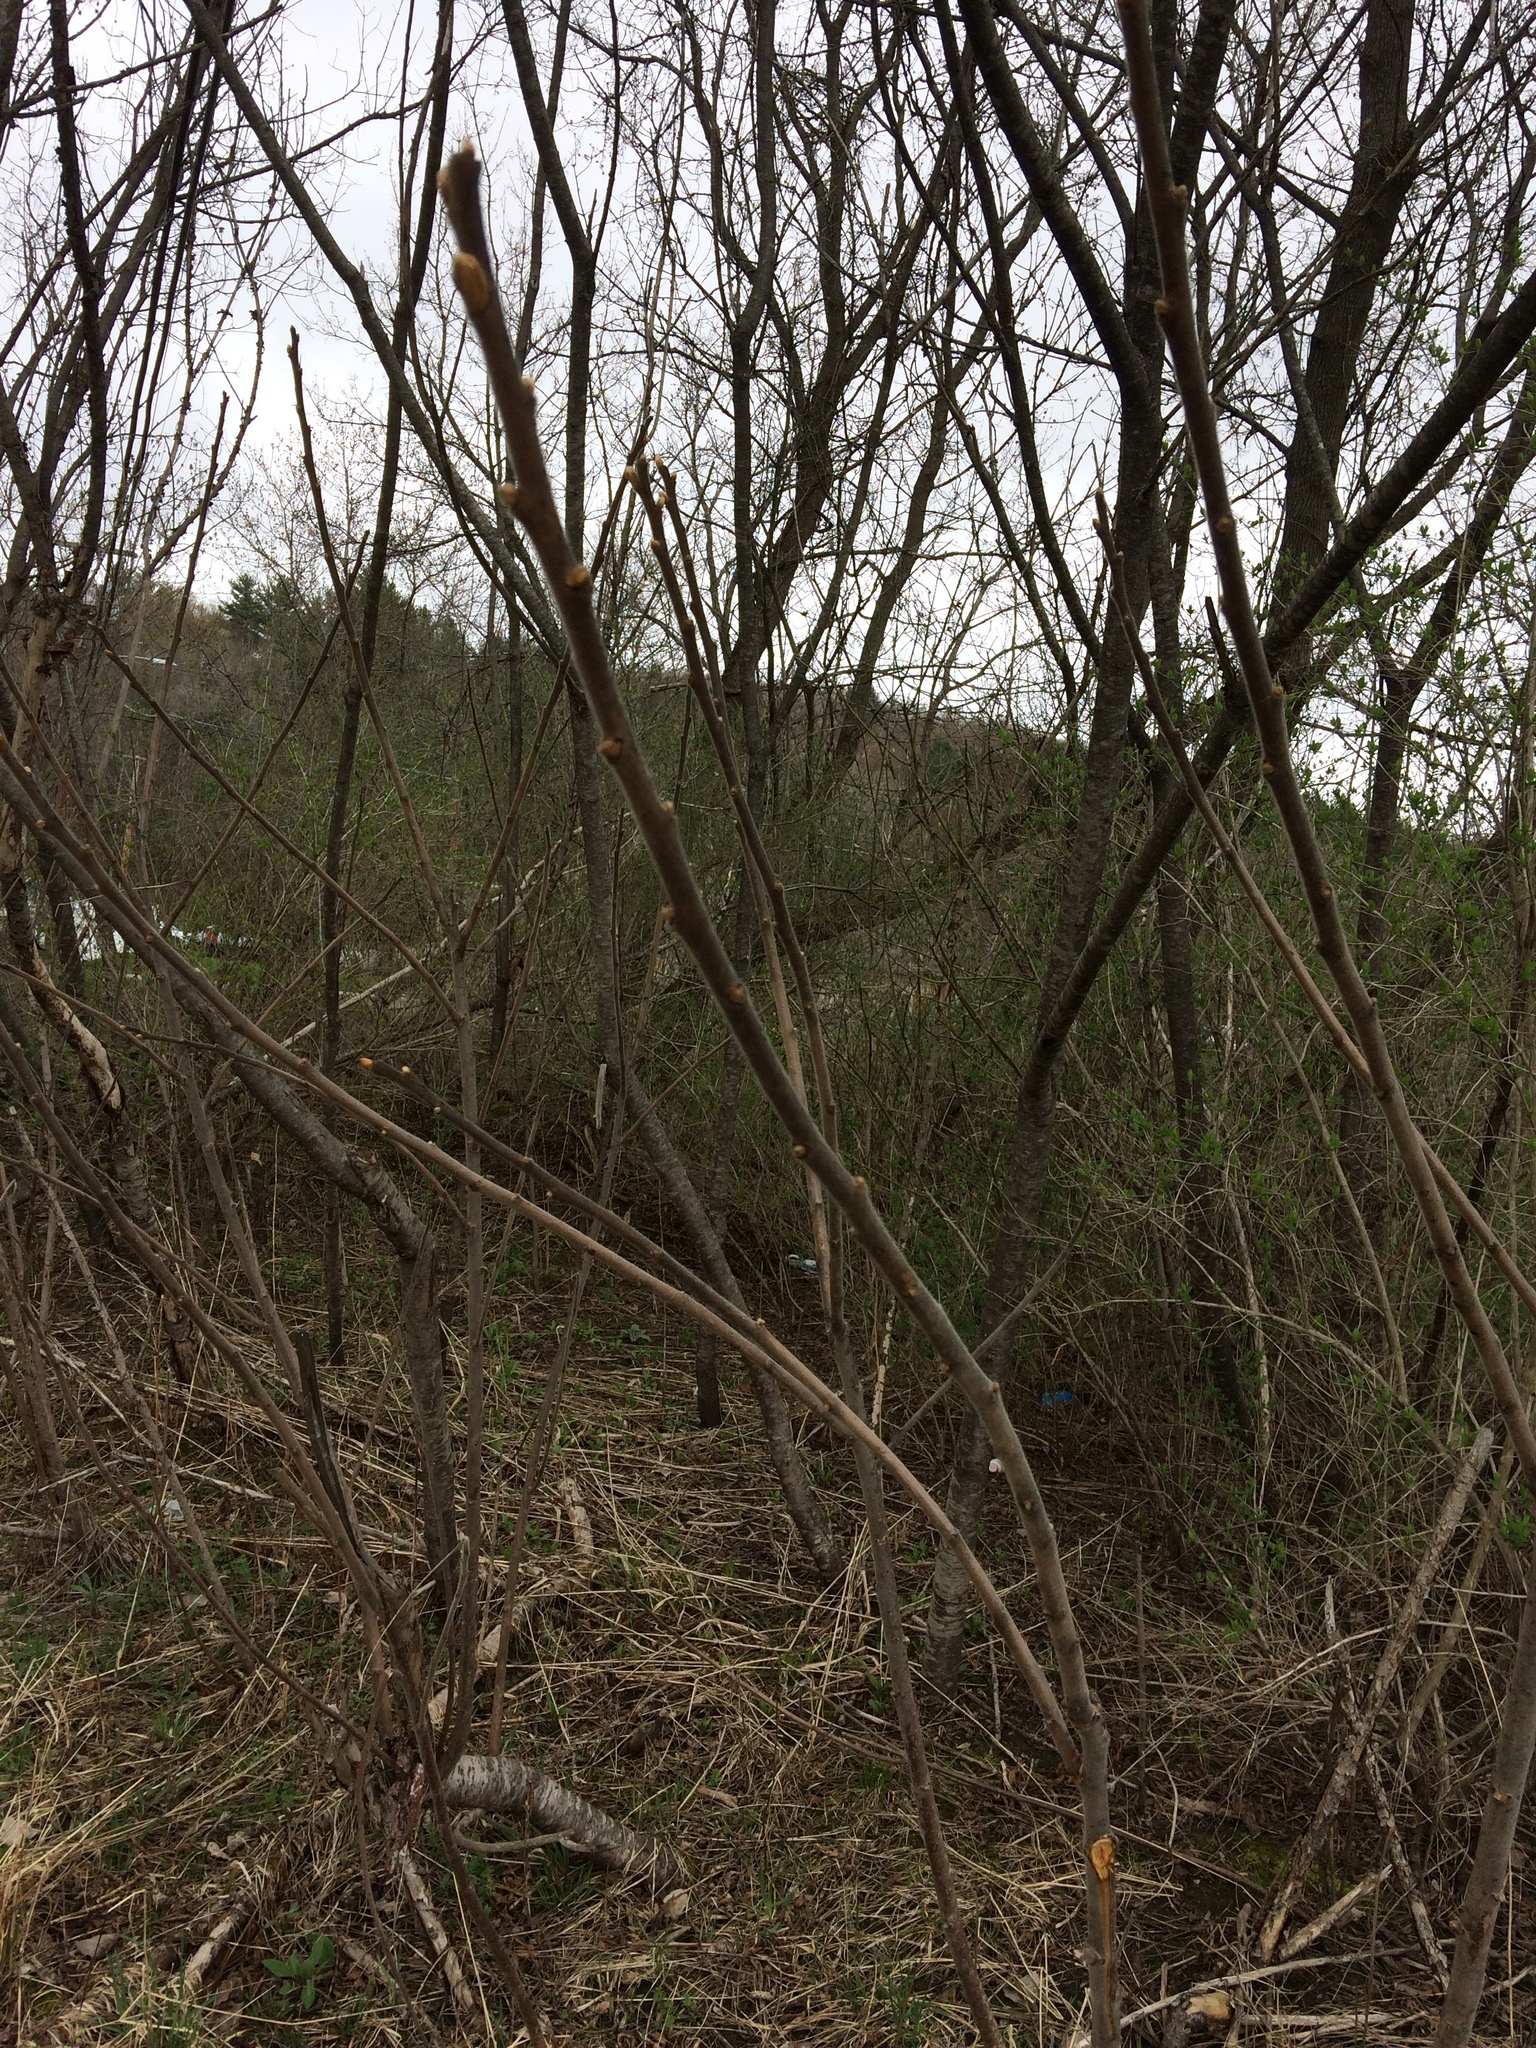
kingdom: Plantae
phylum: Tracheophyta
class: Magnoliopsida
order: Sapindales
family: Anacardiaceae
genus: Rhus
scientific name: Rhus typhina
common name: Staghorn sumac
